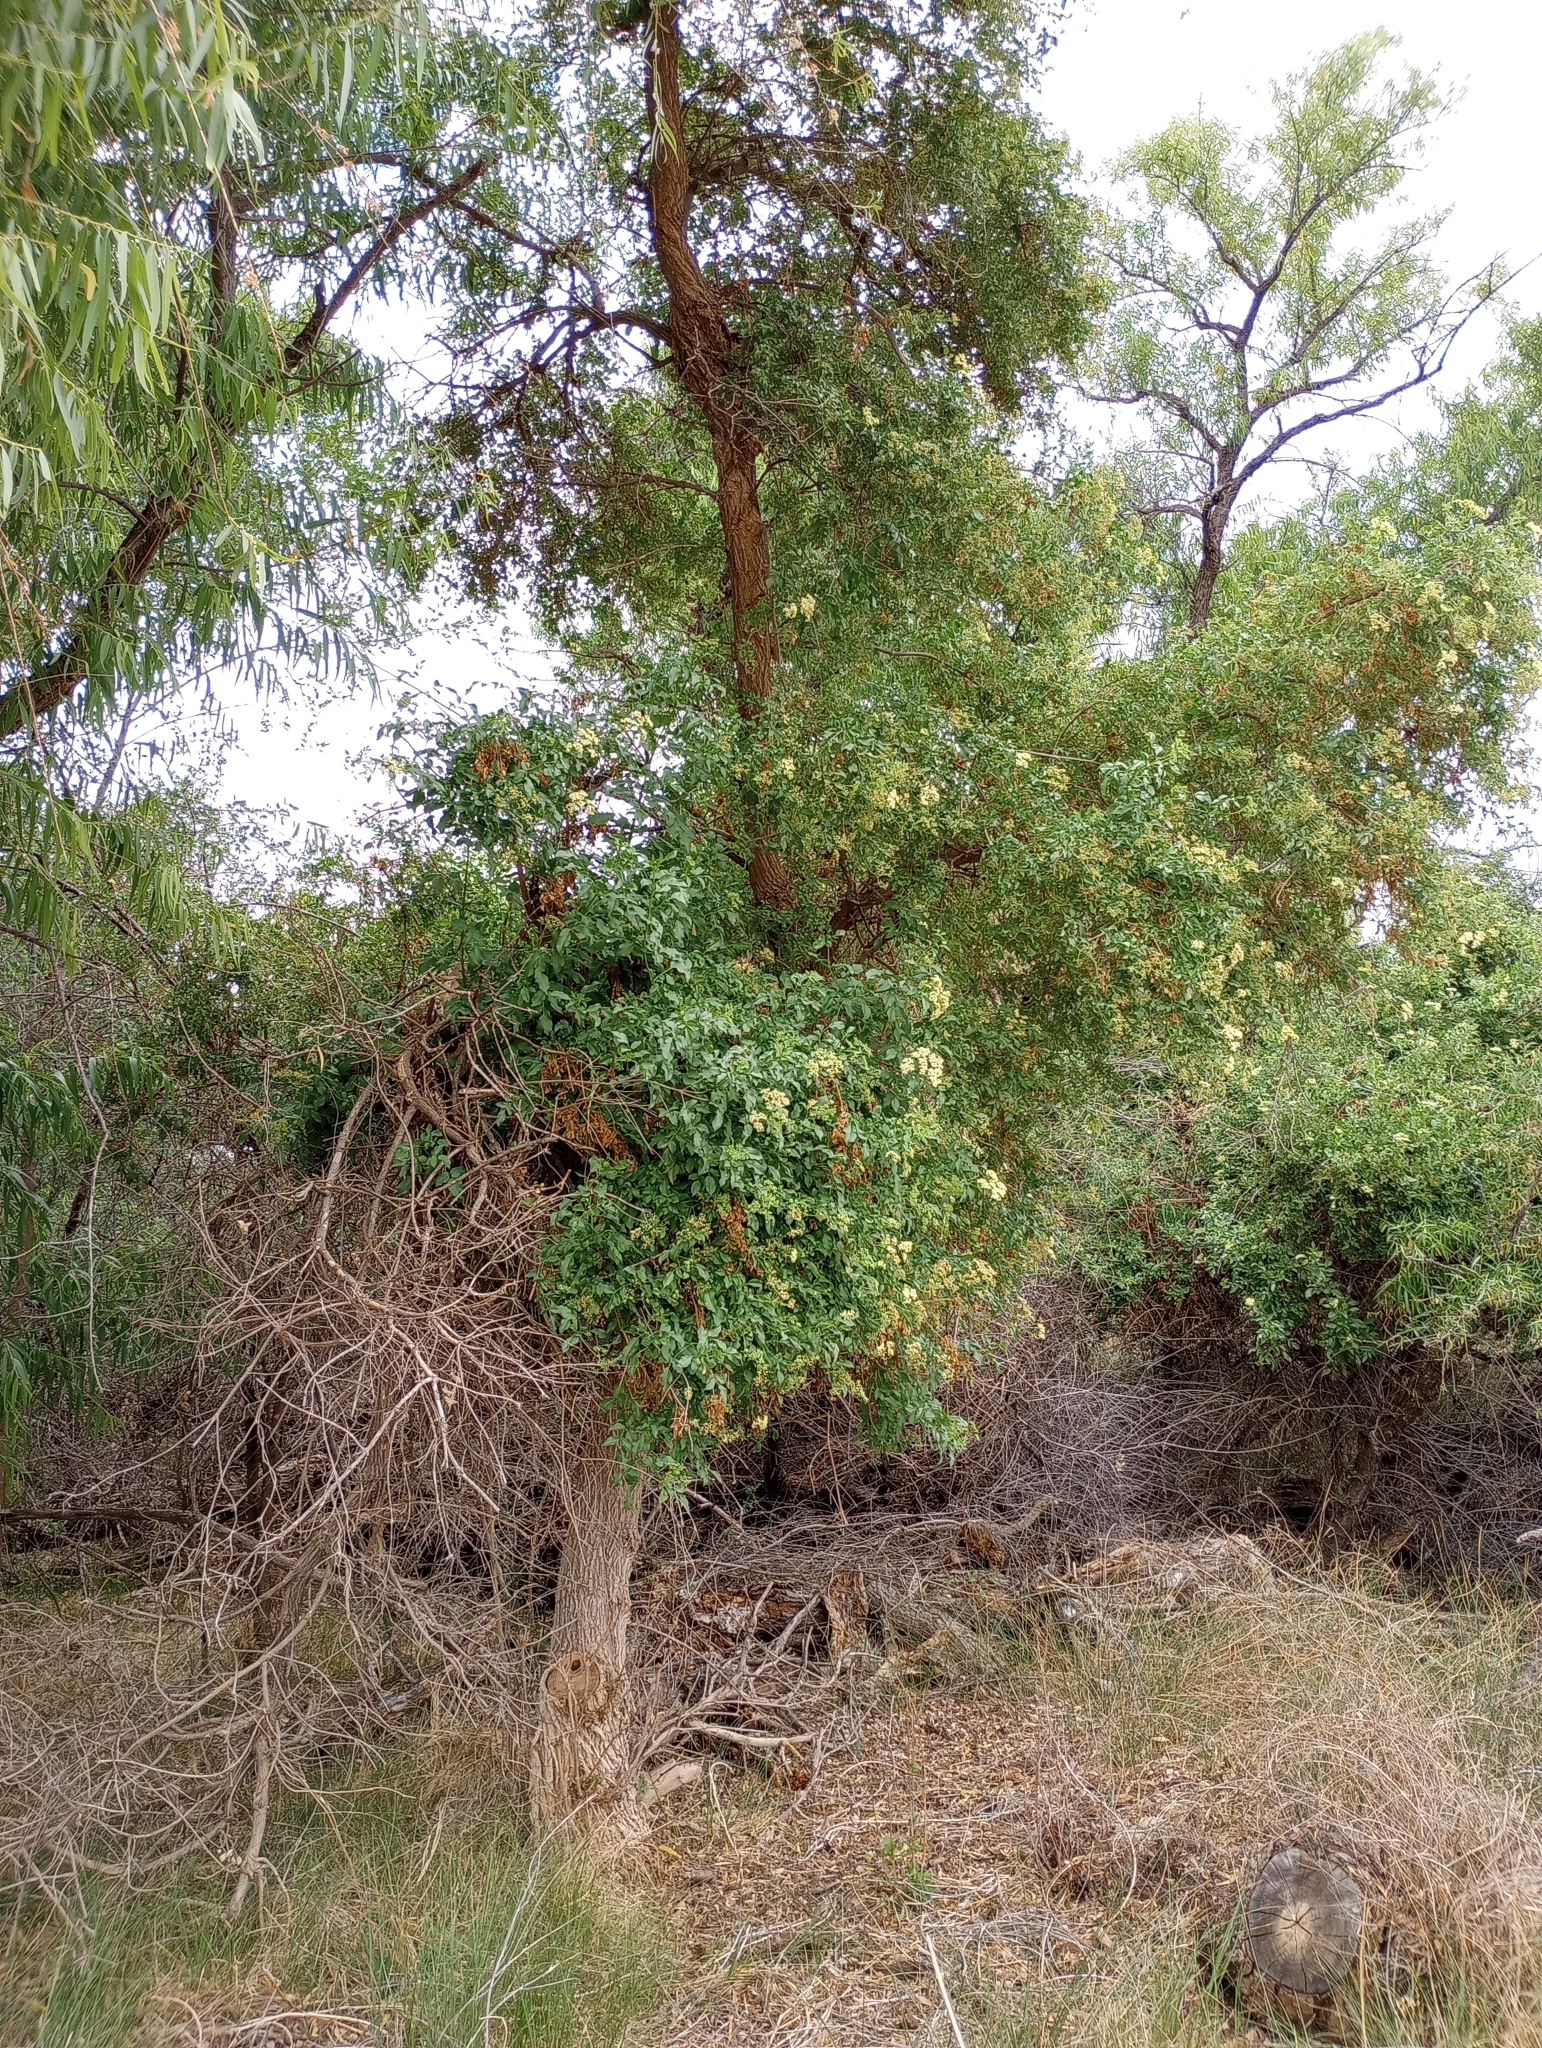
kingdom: Plantae
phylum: Tracheophyta
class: Magnoliopsida
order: Dipsacales
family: Viburnaceae
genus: Sambucus
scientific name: Sambucus cerulea
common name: Blue elder
